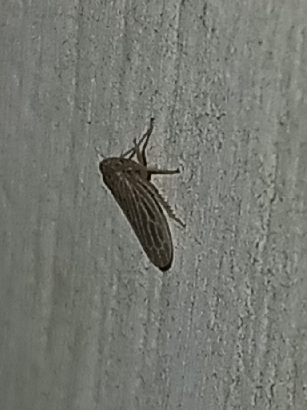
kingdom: Animalia
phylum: Arthropoda
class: Insecta
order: Hemiptera
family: Cicadellidae
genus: Agallia
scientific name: Agallia constricta
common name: The constricted leafhopper
